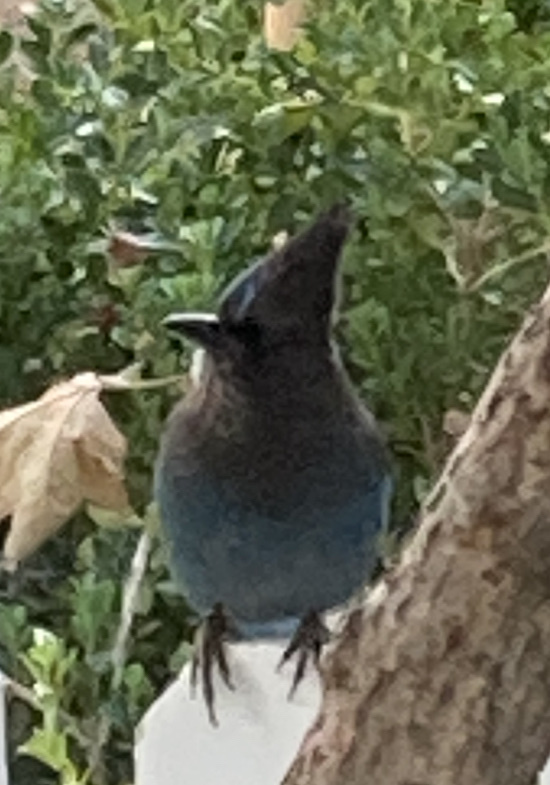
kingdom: Animalia
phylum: Chordata
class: Aves
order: Passeriformes
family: Corvidae
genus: Cyanocitta
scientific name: Cyanocitta stelleri
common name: Steller's jay
